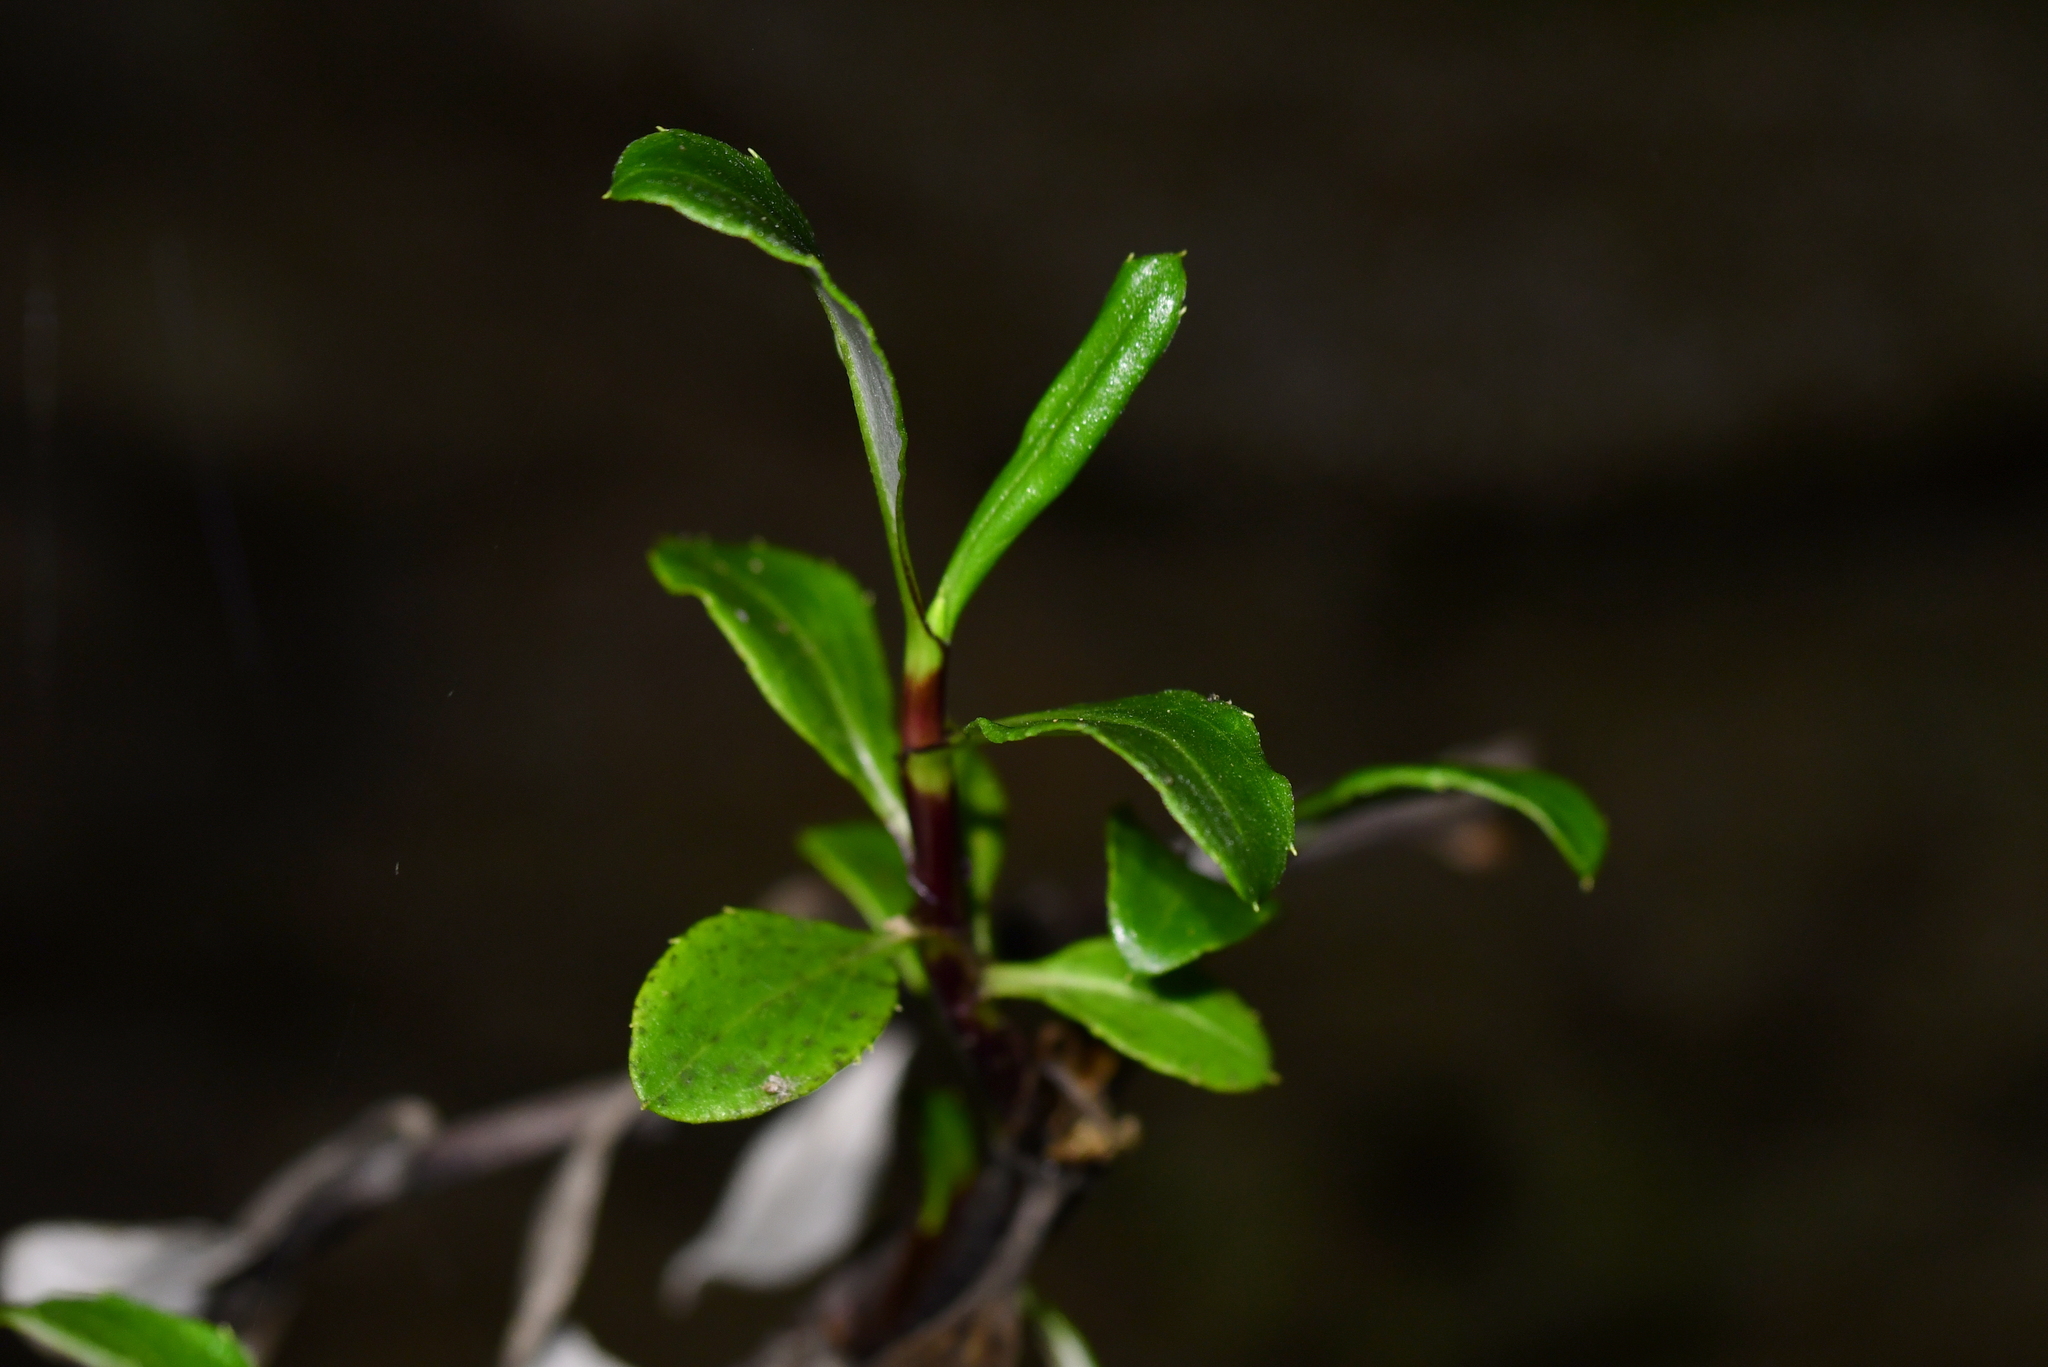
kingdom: Plantae
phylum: Tracheophyta
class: Magnoliopsida
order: Asterales
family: Asteraceae
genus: Celmisia
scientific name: Celmisia bonplandii
